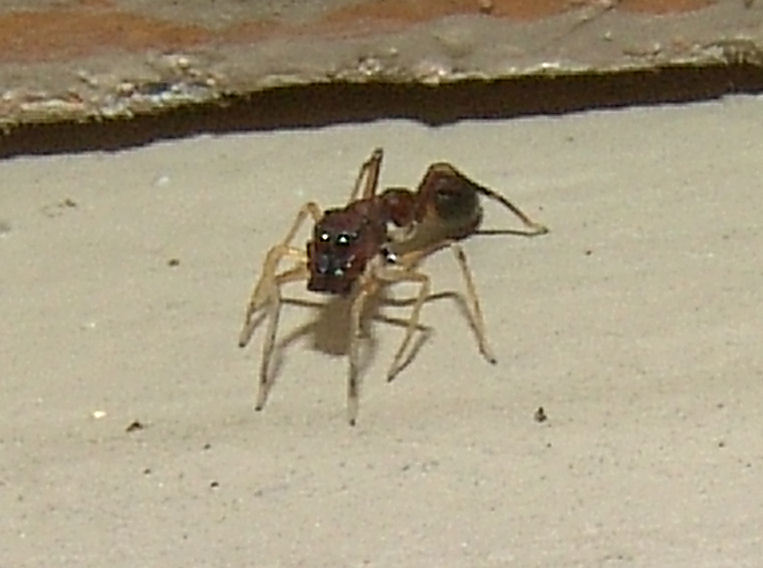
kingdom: Animalia
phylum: Arthropoda
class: Arachnida
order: Araneae
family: Salticidae
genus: Synemosyna
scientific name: Synemosyna formica
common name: Slender ant-mimic jumping spider
